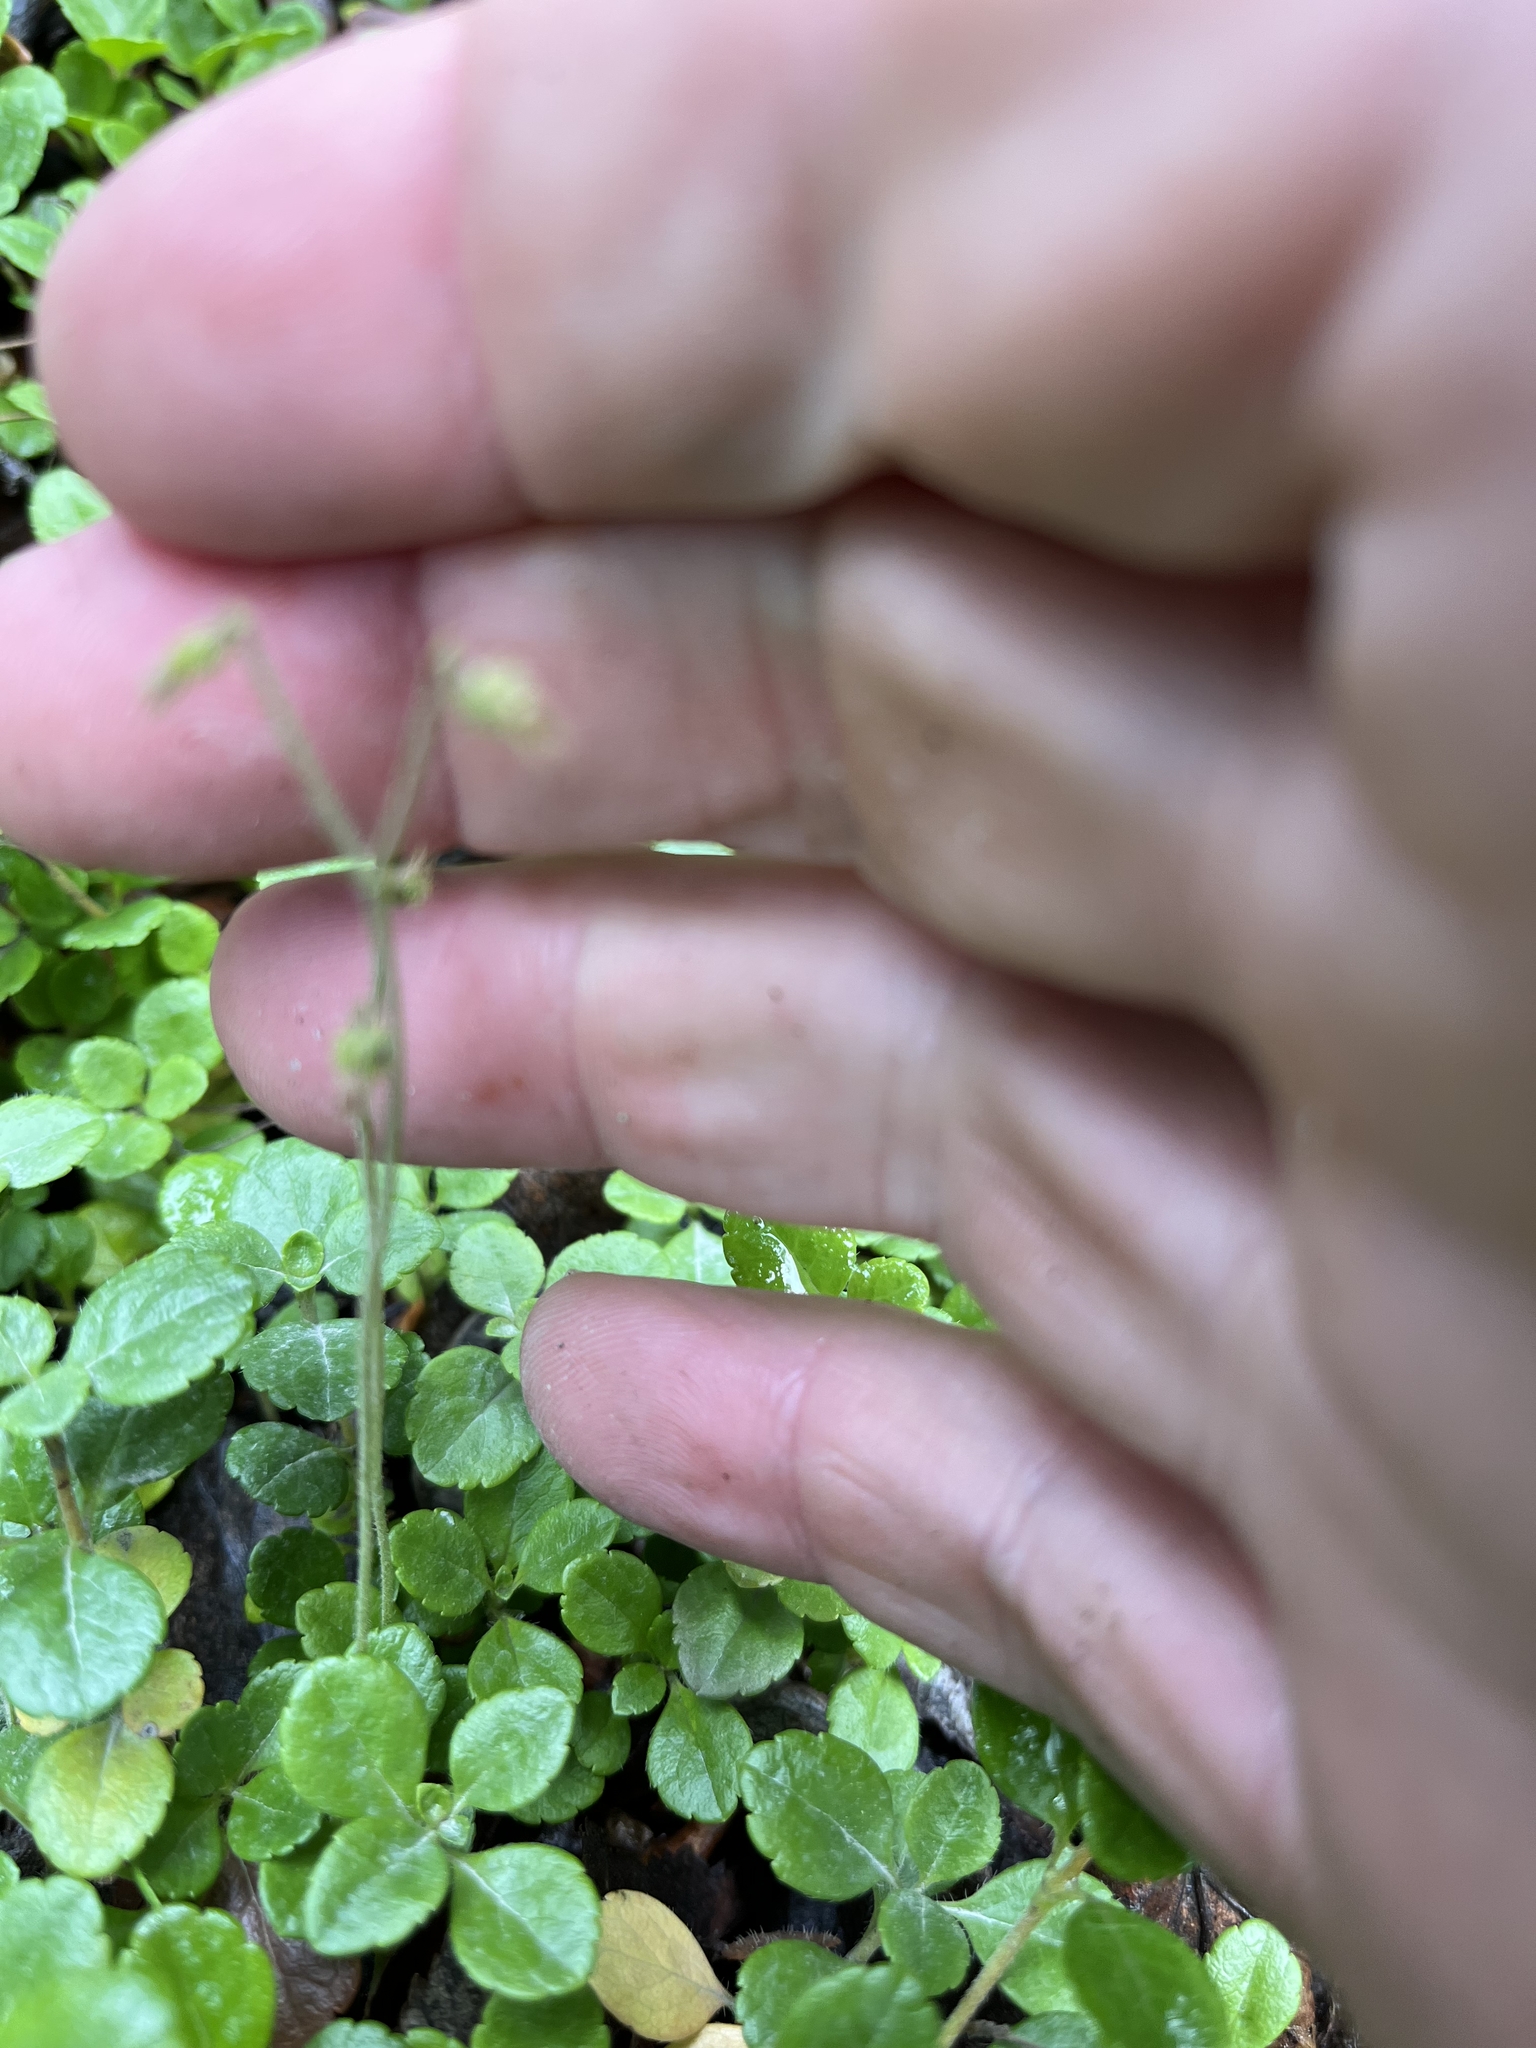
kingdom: Plantae
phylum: Tracheophyta
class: Magnoliopsida
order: Dipsacales
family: Caprifoliaceae
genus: Linnaea
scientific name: Linnaea borealis
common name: Twinflower
